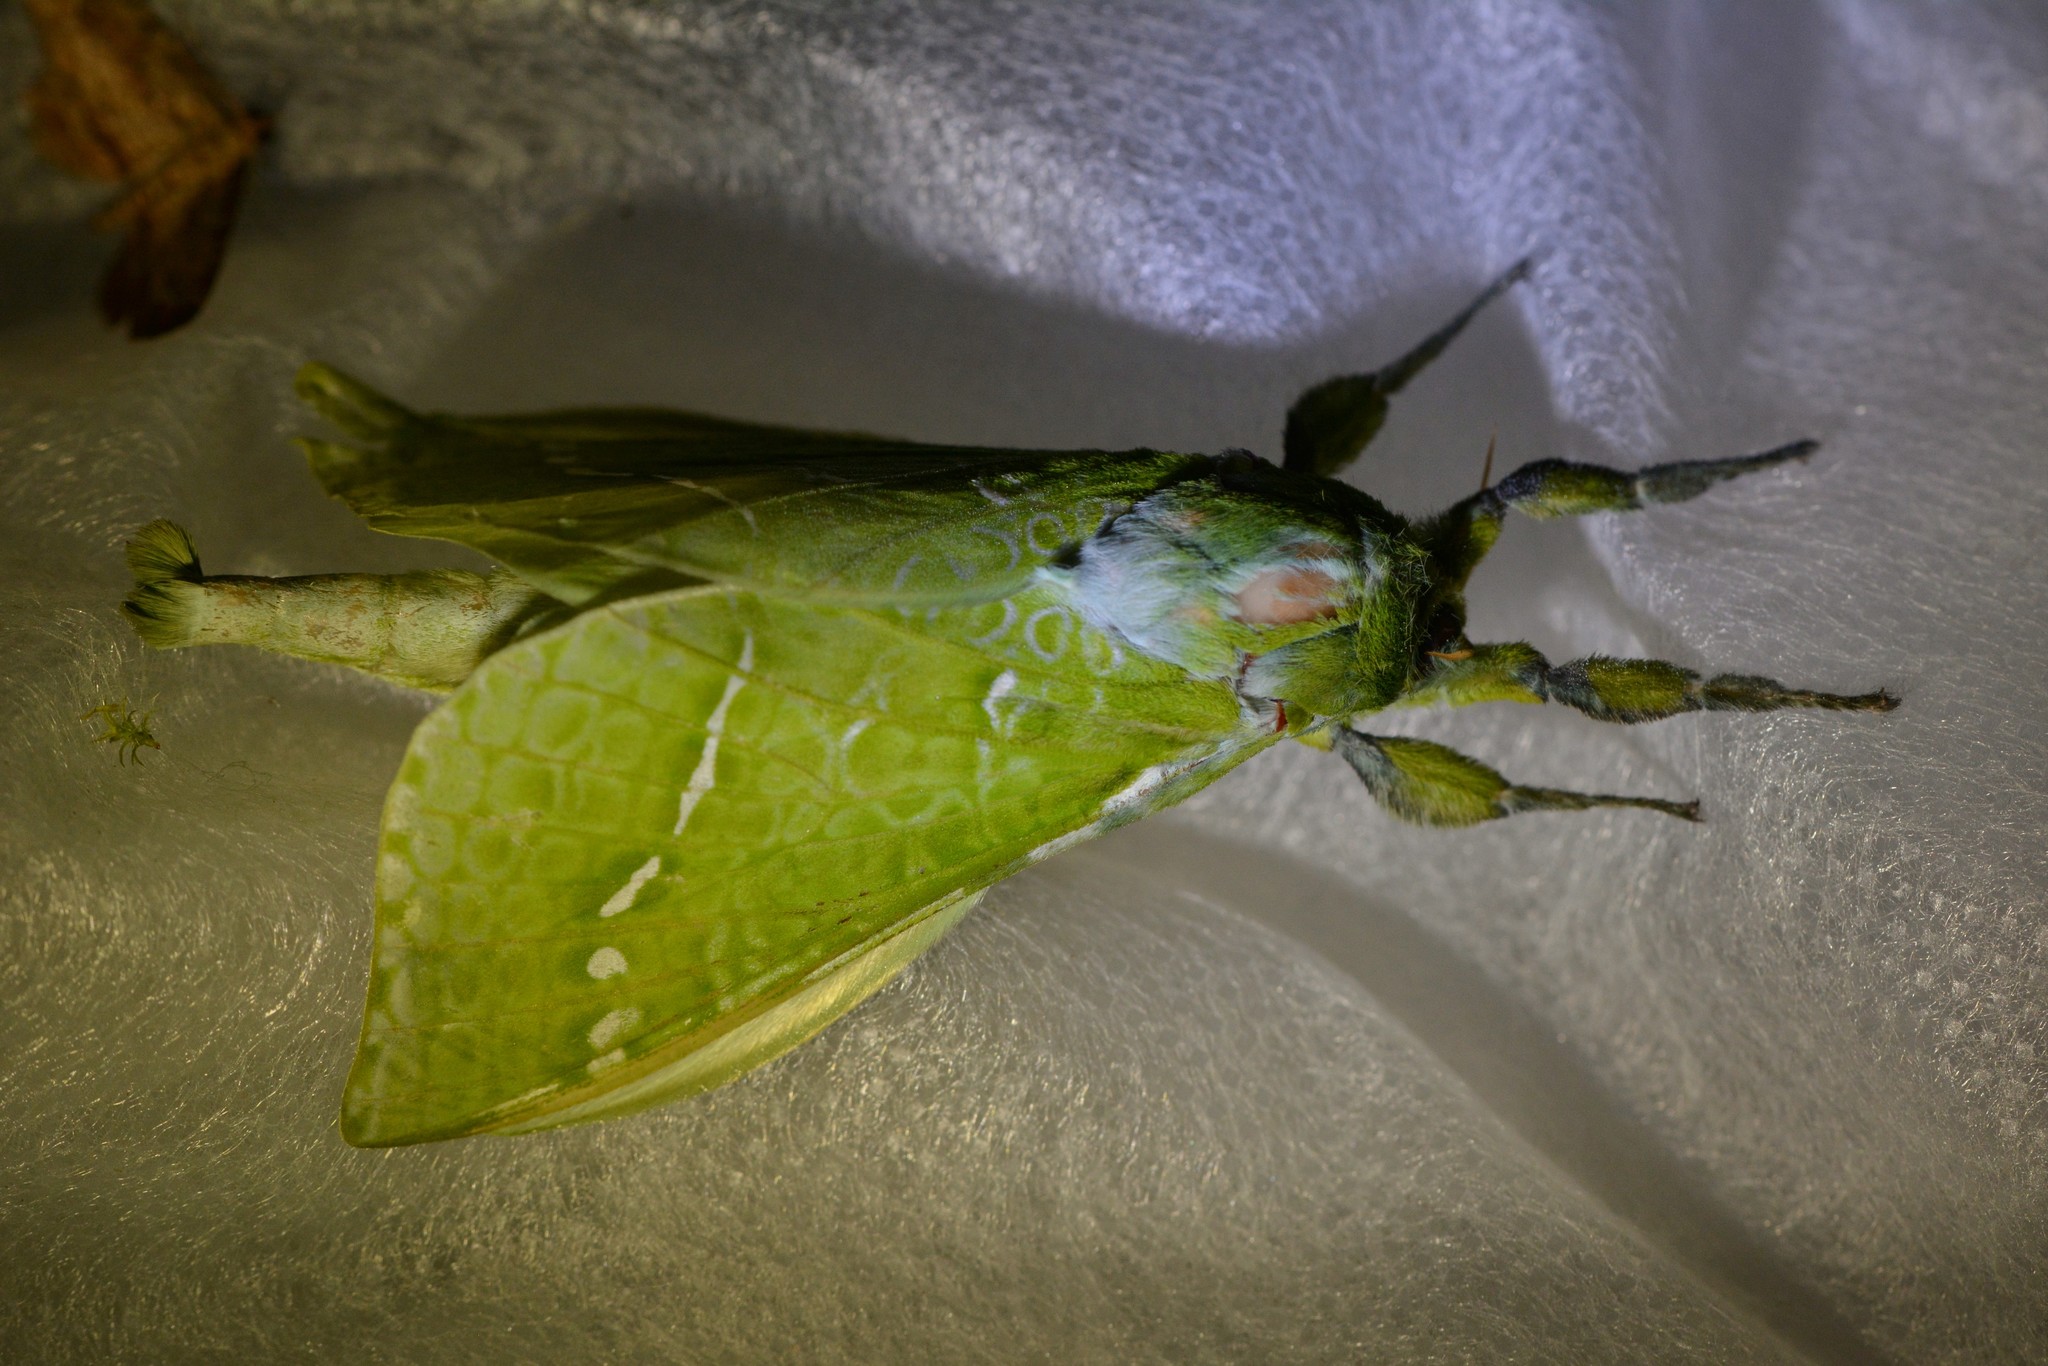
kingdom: Animalia
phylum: Arthropoda
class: Insecta
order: Lepidoptera
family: Hepialidae
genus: Aenetus
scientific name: Aenetus virescens
